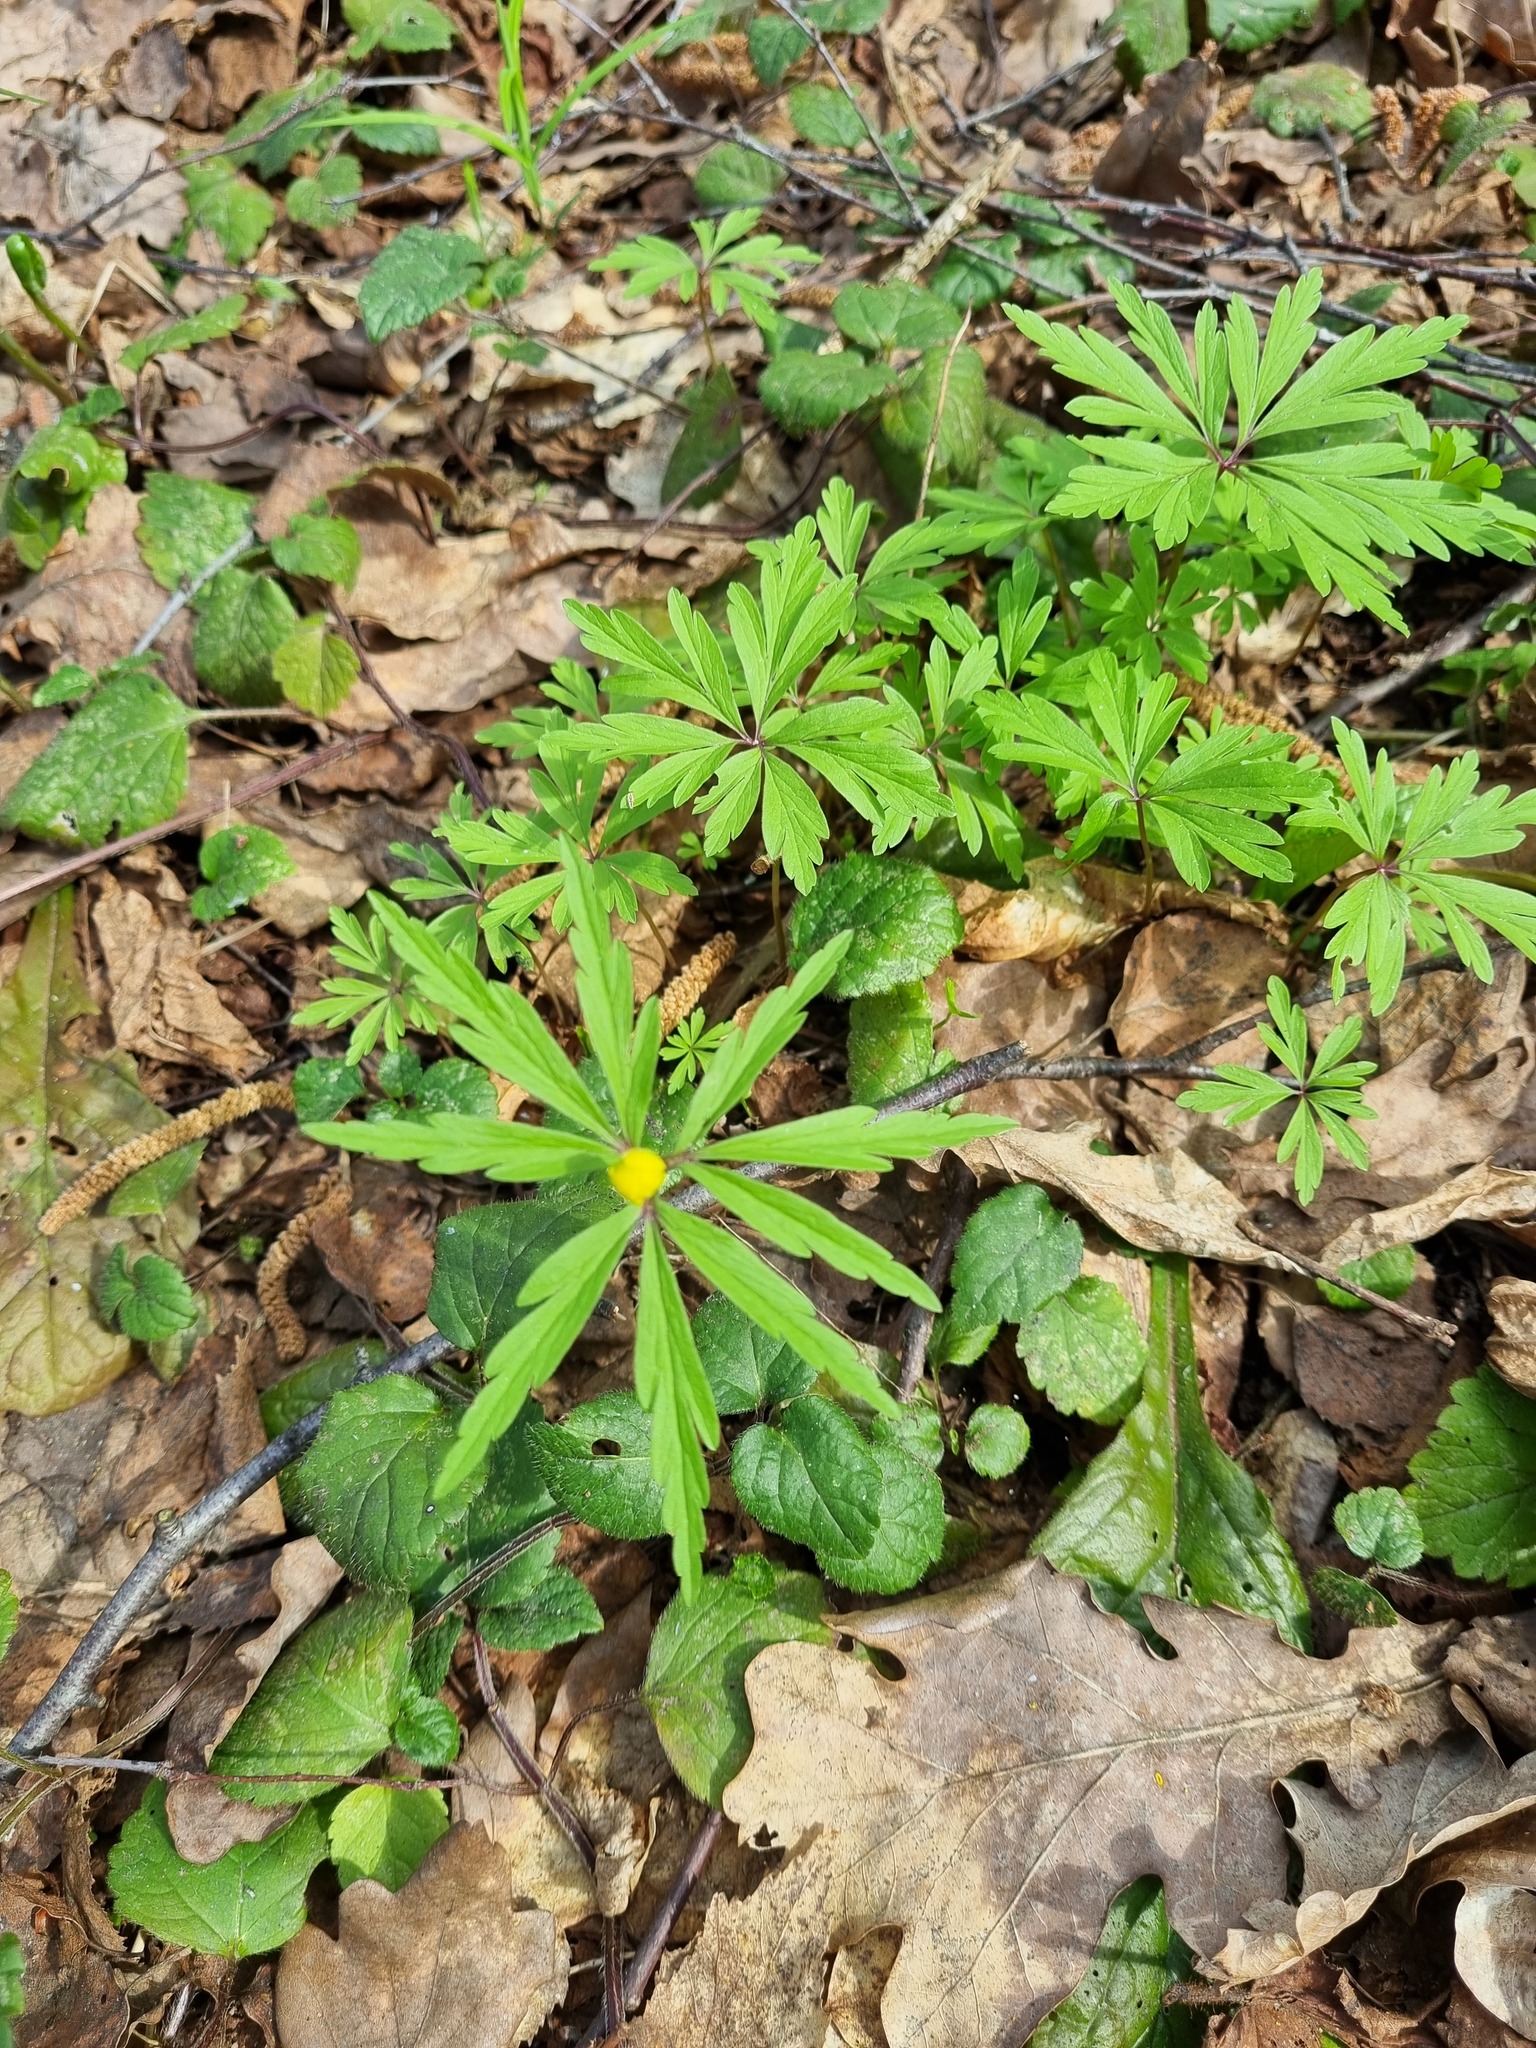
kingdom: Plantae
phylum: Tracheophyta
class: Magnoliopsida
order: Ranunculales
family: Ranunculaceae
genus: Anemone
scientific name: Anemone ranunculoides
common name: Yellow anemone
